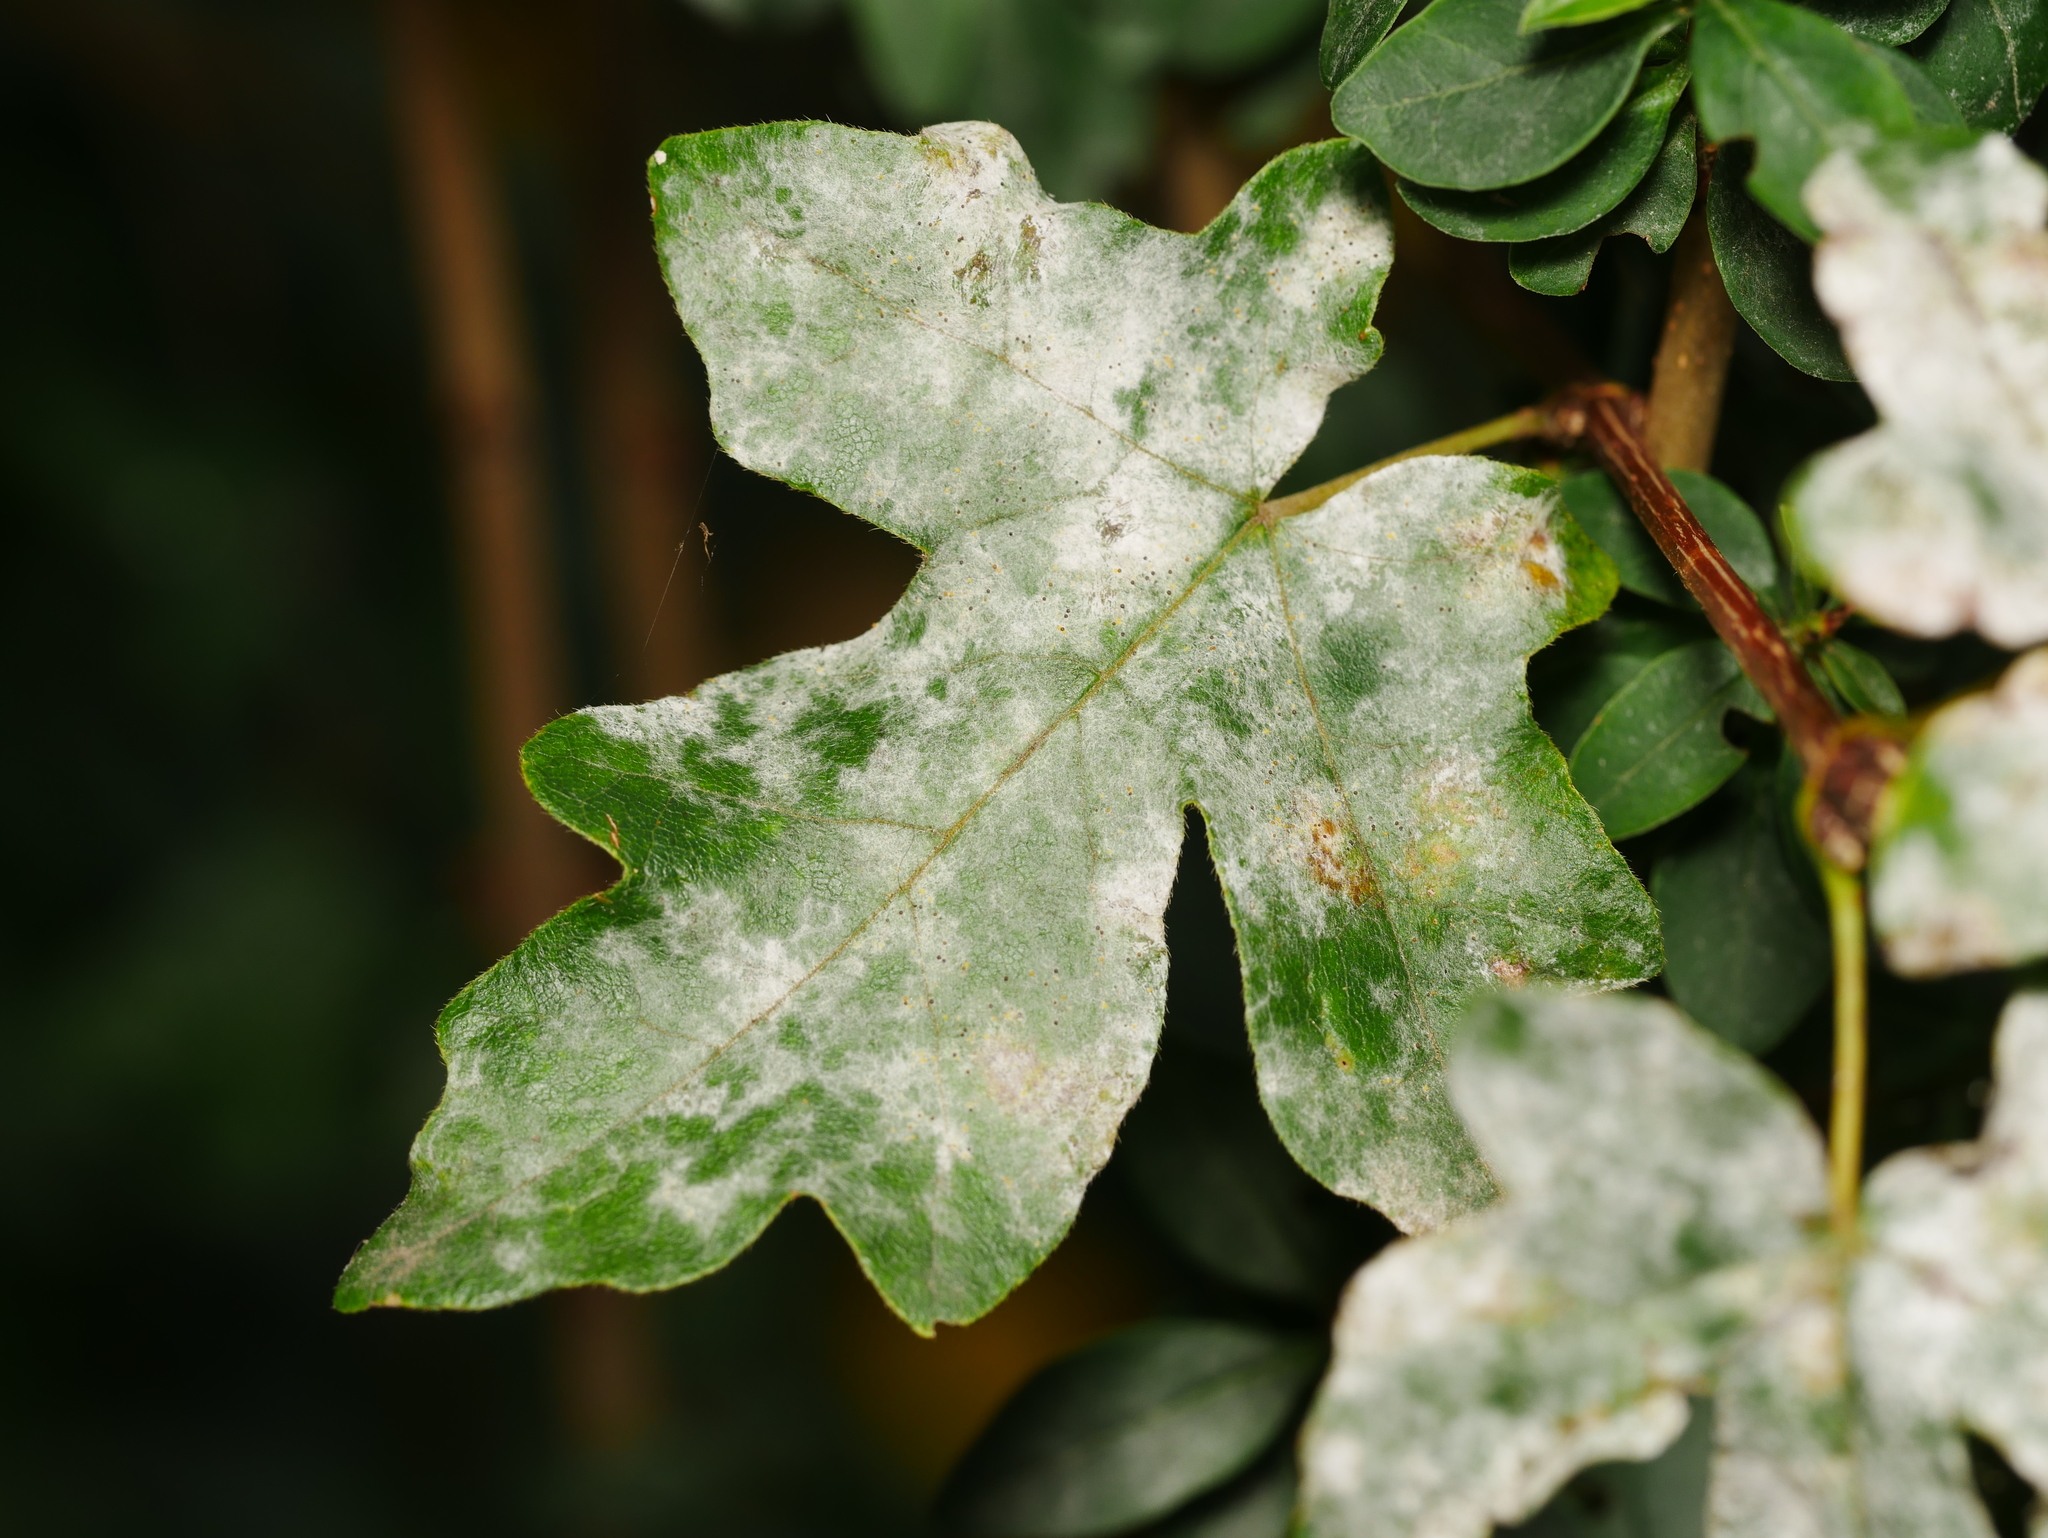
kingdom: Plantae
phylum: Tracheophyta
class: Magnoliopsida
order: Sapindales
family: Sapindaceae
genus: Acer
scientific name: Acer campestre
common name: Field maple
